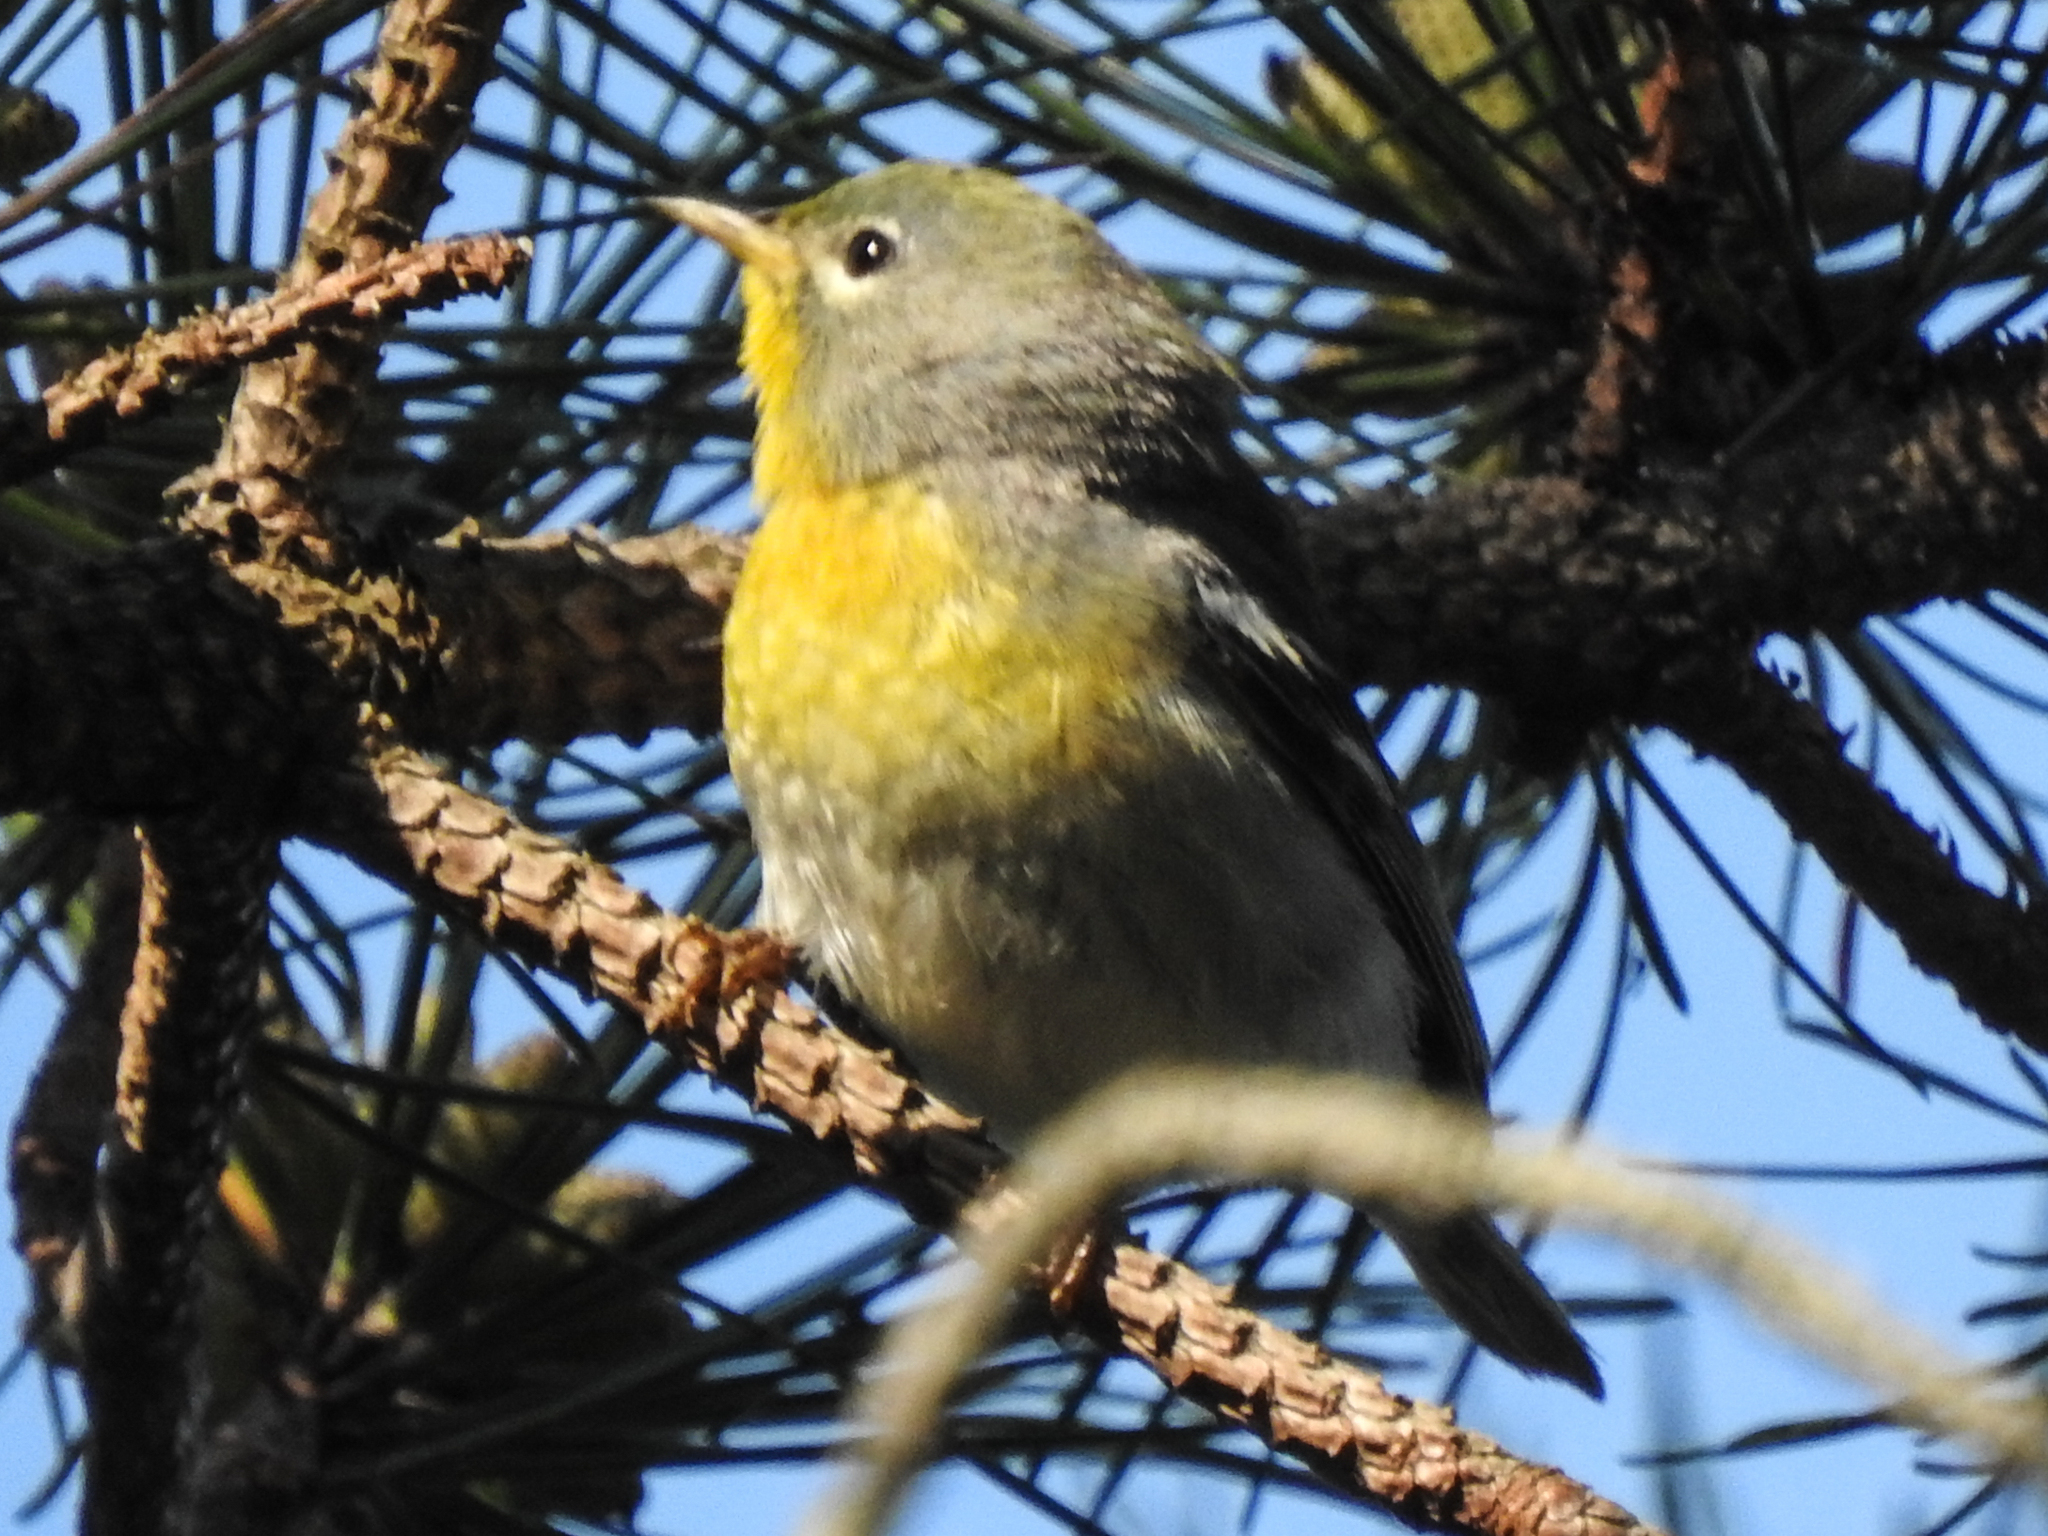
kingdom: Animalia
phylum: Chordata
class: Aves
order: Passeriformes
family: Parulidae
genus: Setophaga
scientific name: Setophaga americana
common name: Northern parula
